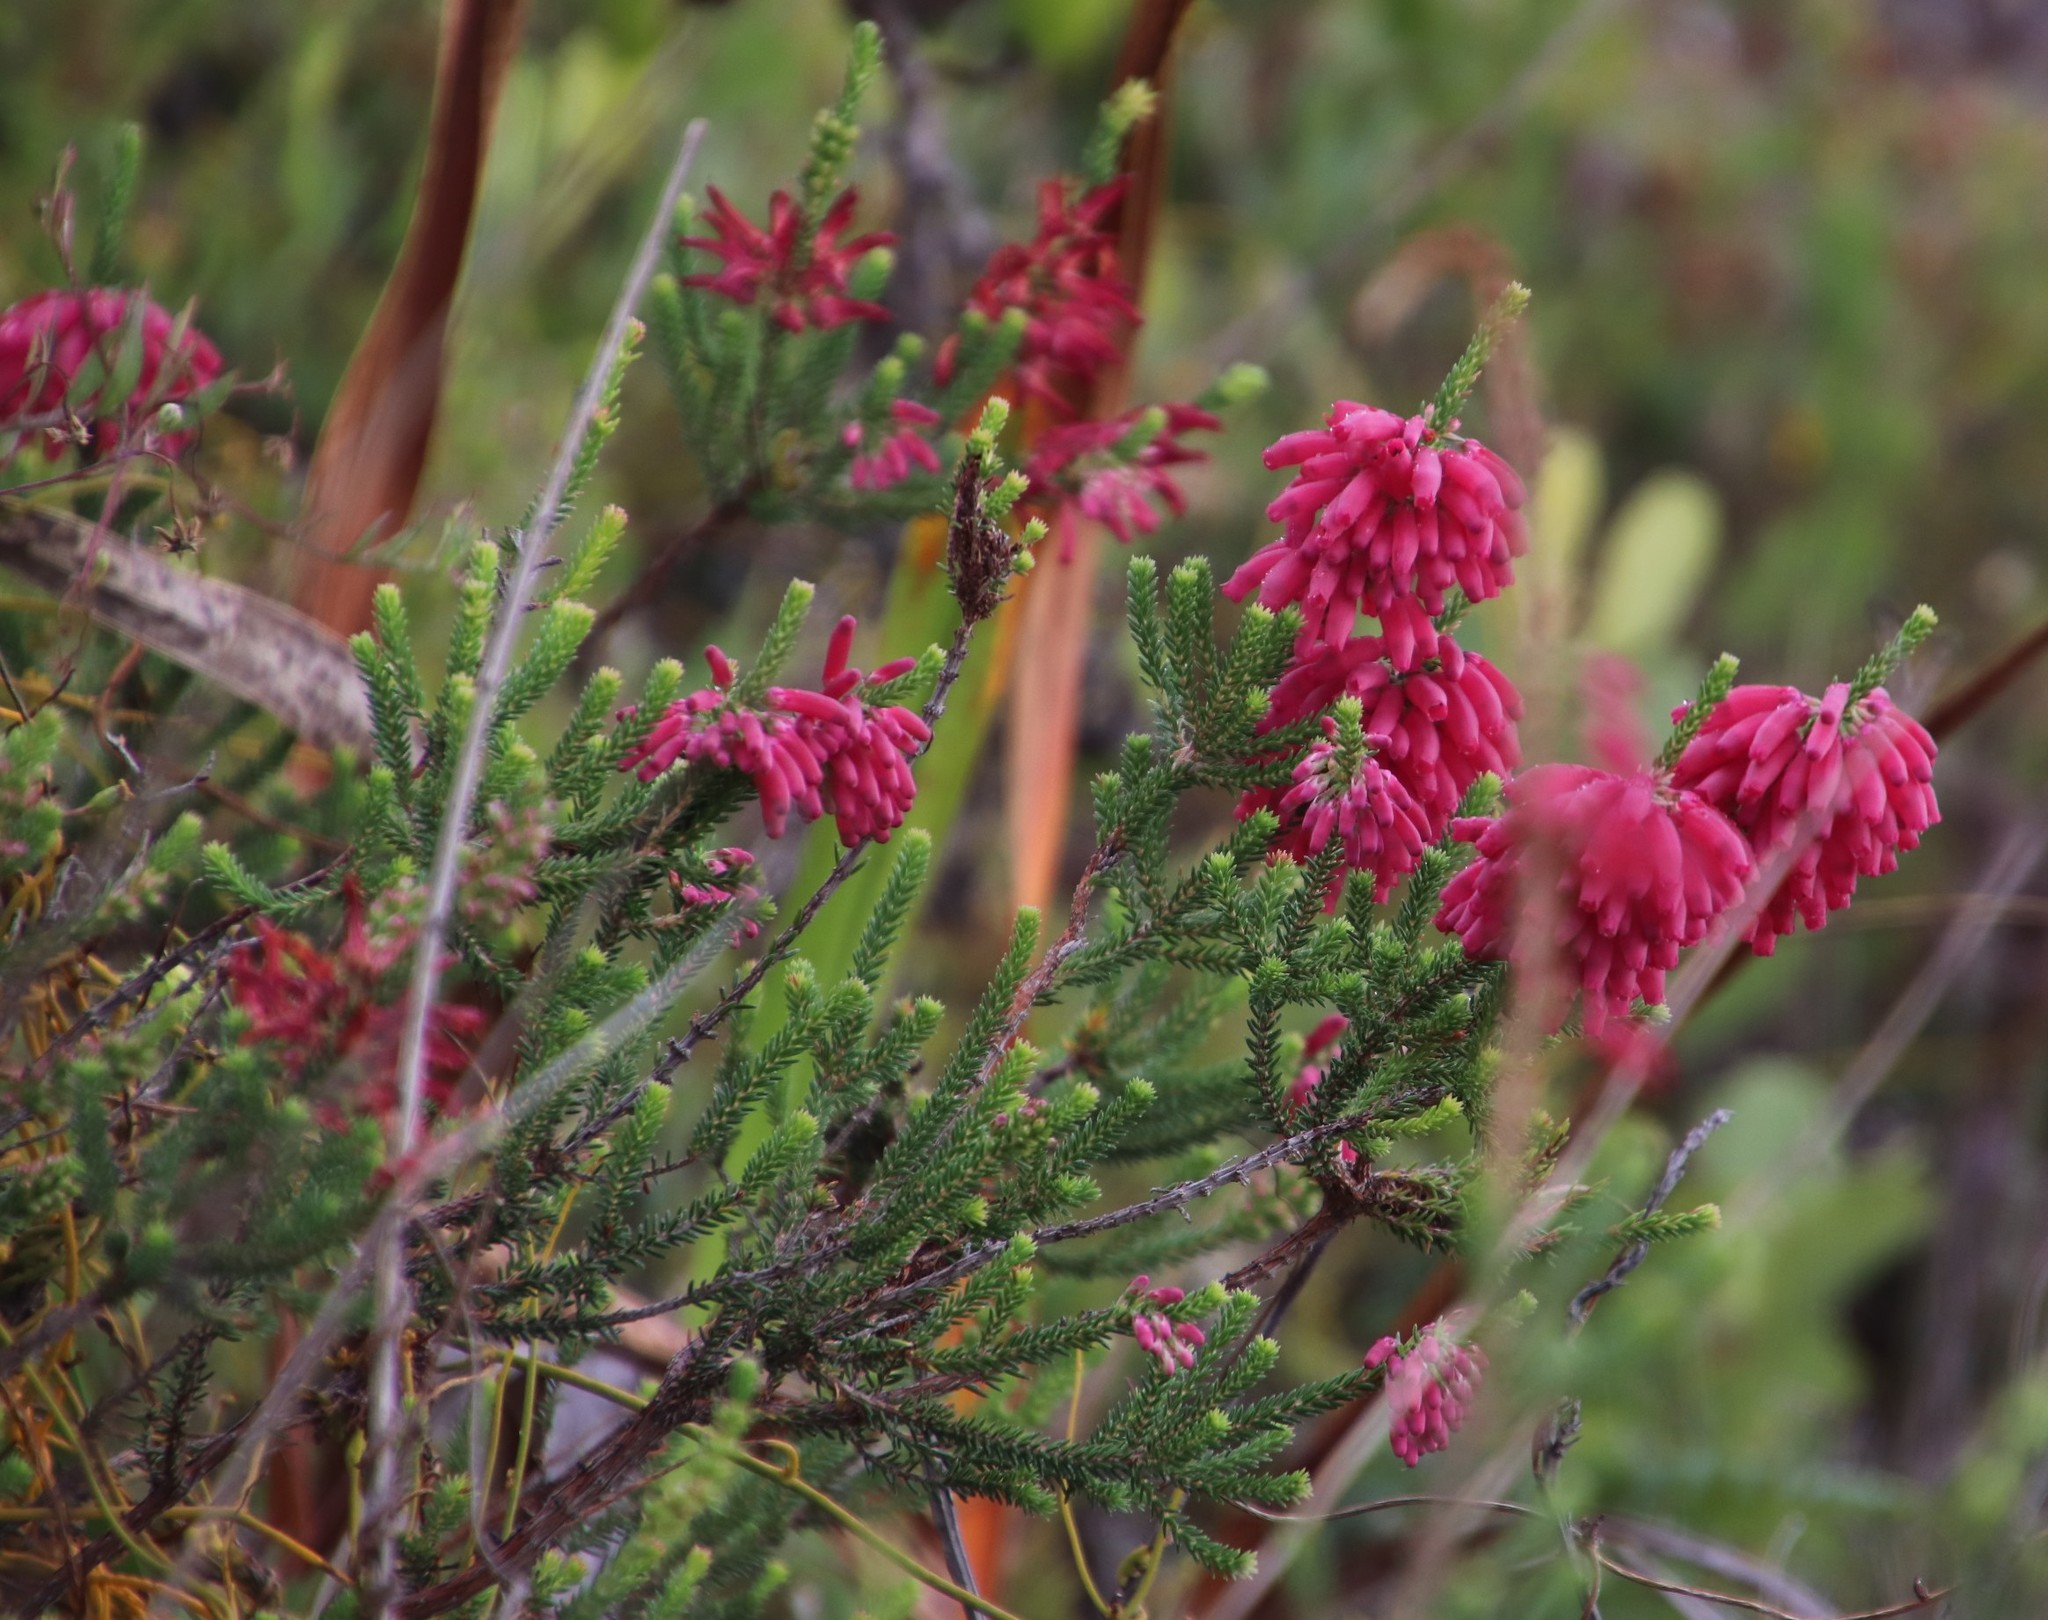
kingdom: Plantae
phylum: Tracheophyta
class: Magnoliopsida
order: Ericales
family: Ericaceae
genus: Erica
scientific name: Erica mammosa
